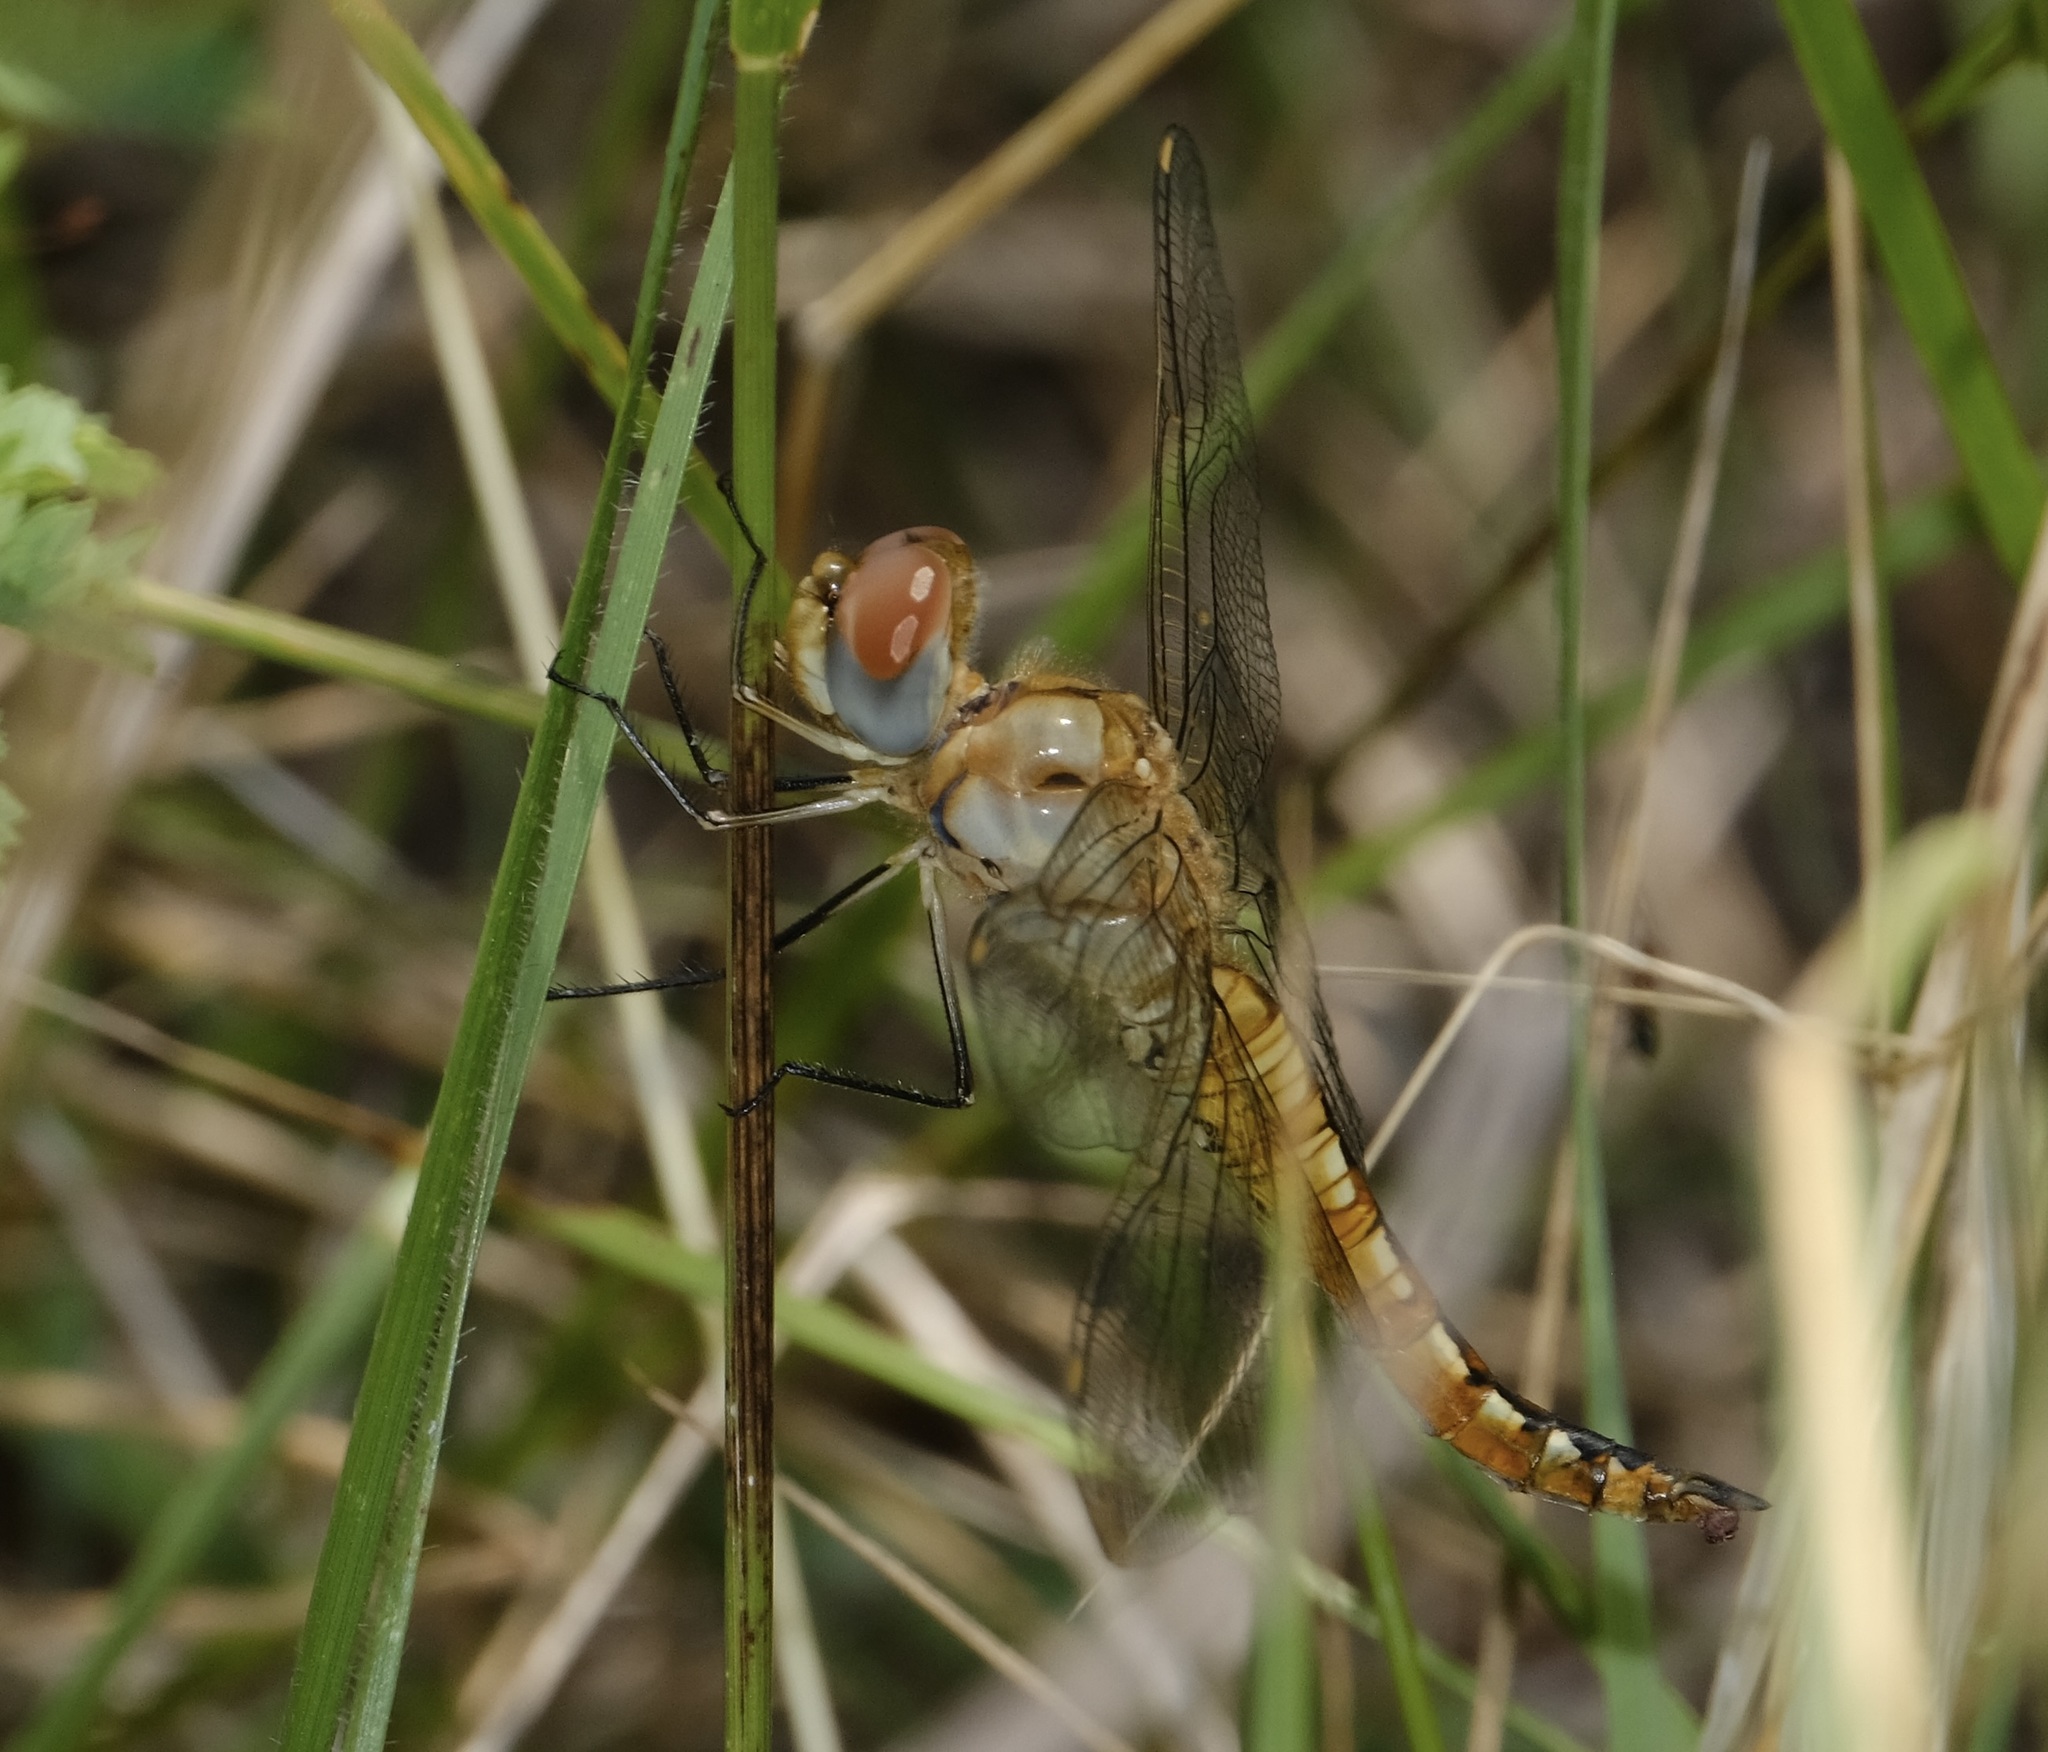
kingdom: Animalia
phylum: Arthropoda
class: Insecta
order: Odonata
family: Libellulidae
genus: Pantala
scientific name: Pantala flavescens
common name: Wandering glider
